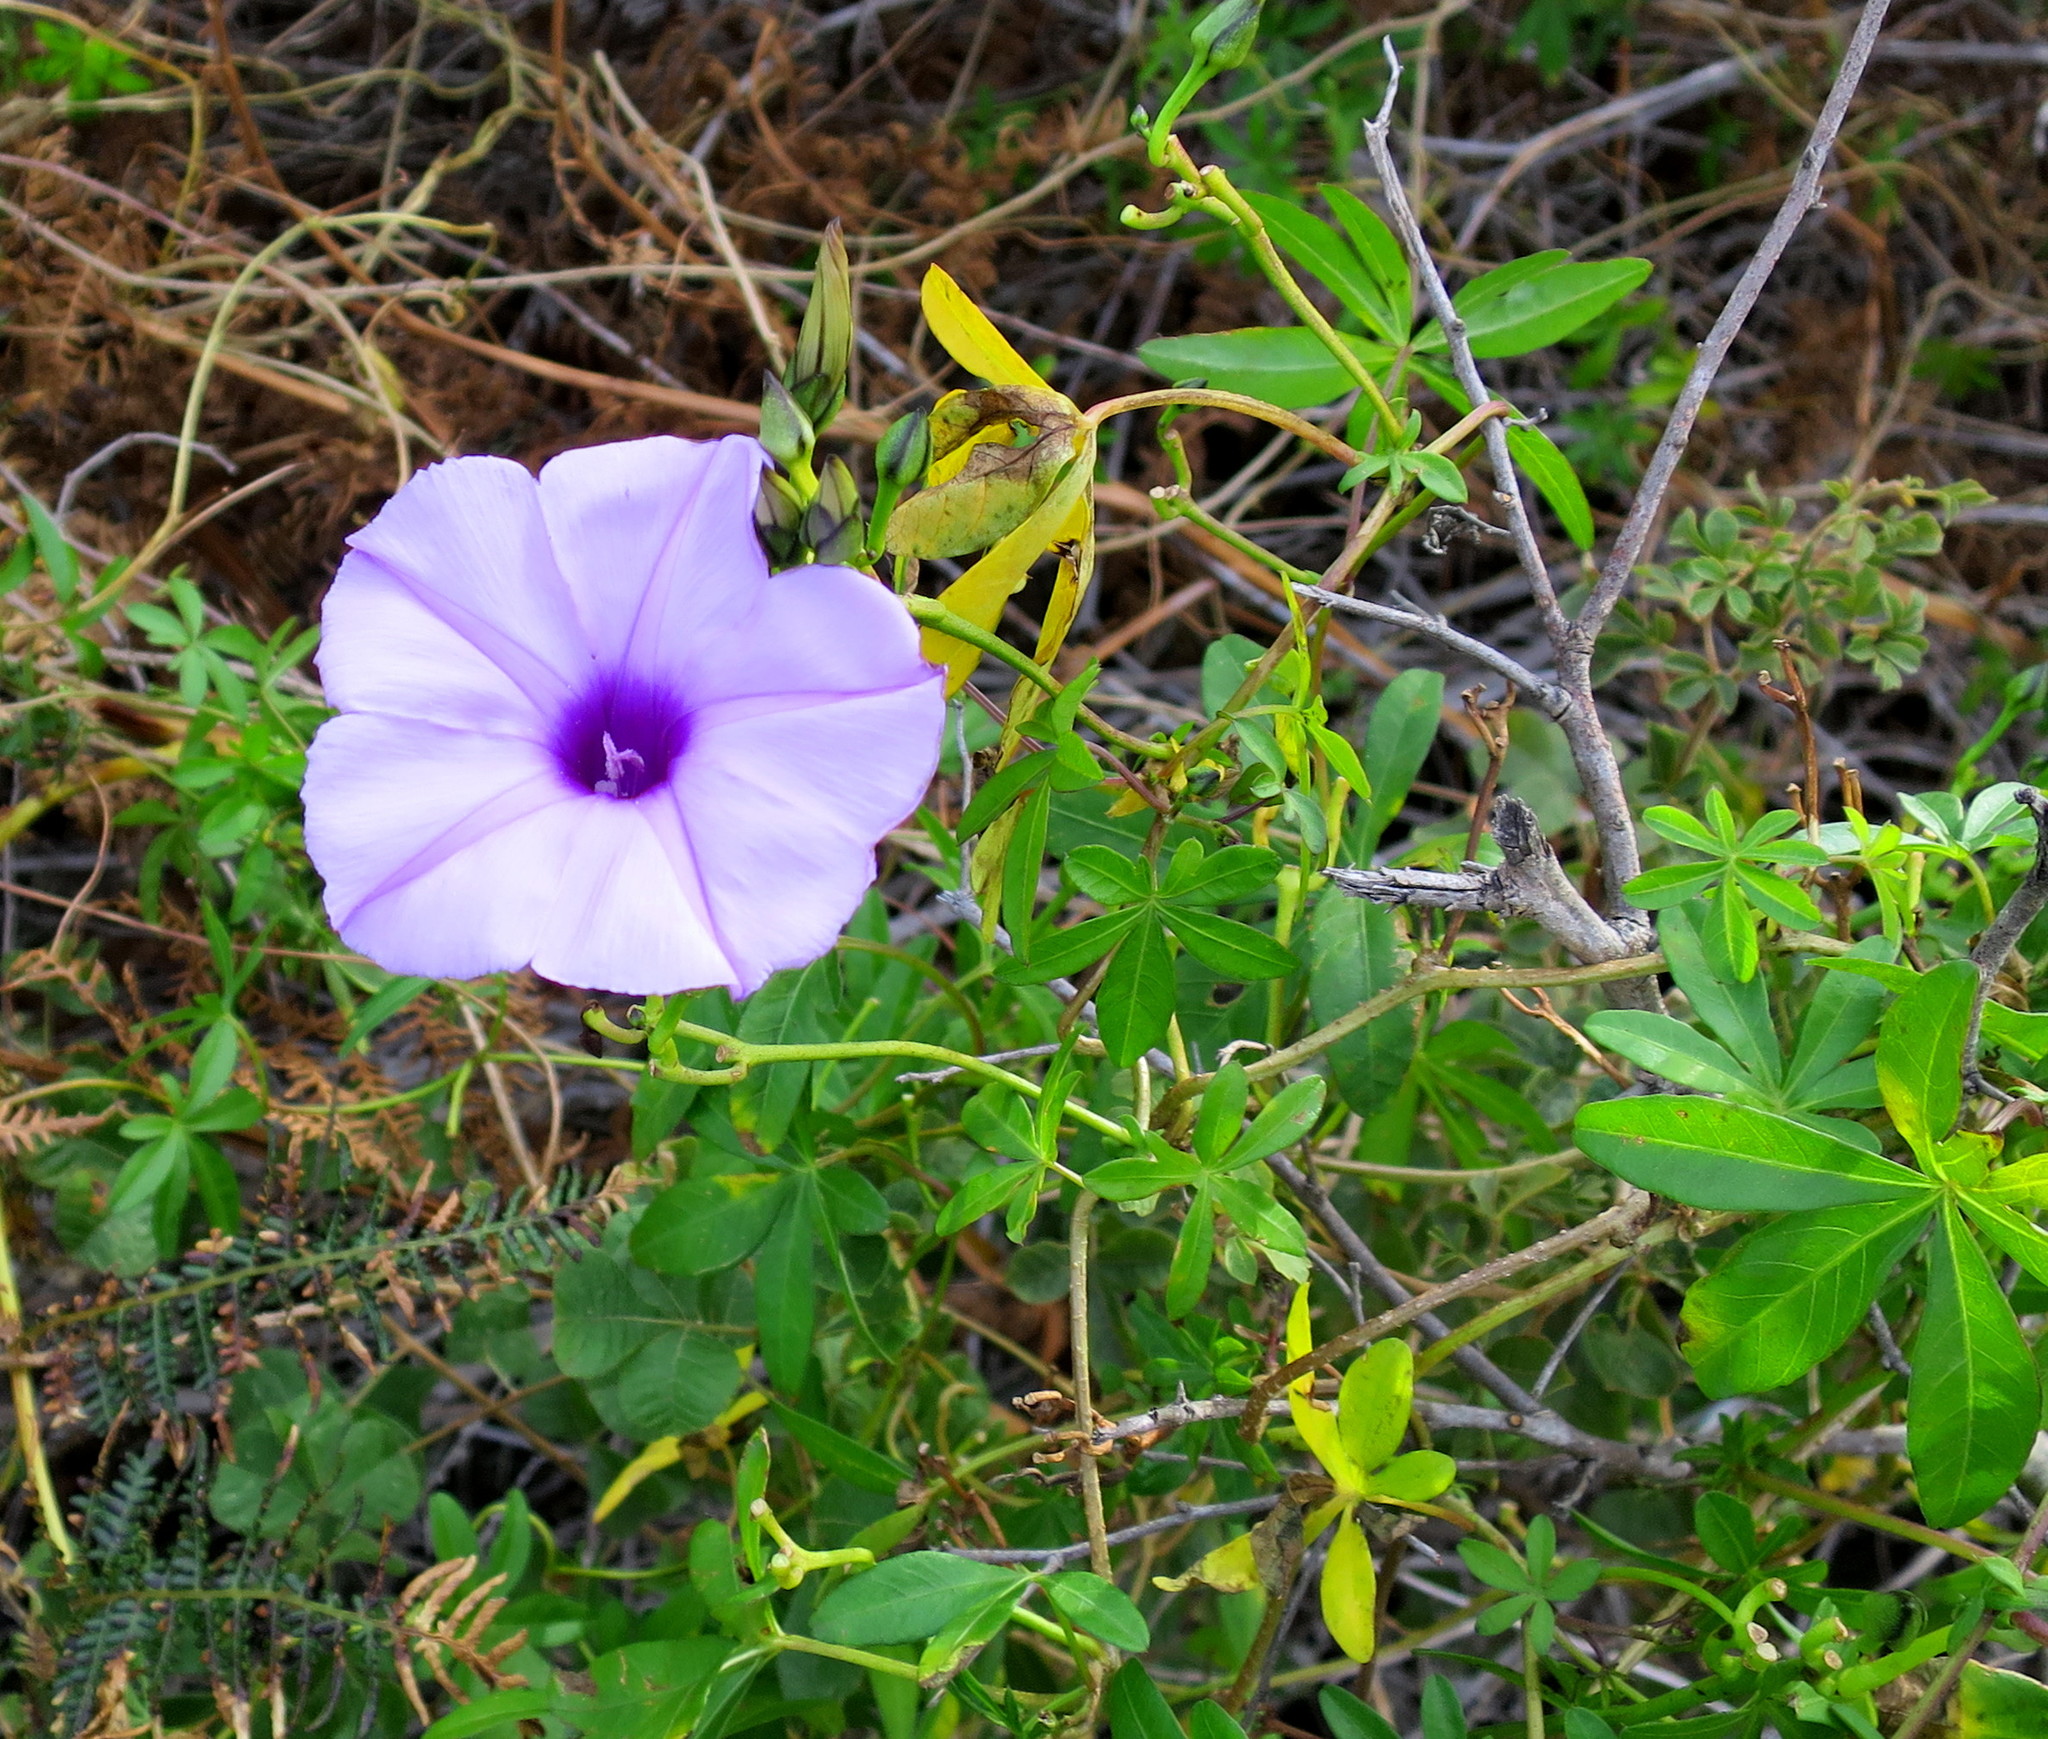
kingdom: Plantae
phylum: Tracheophyta
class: Magnoliopsida
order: Solanales
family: Convolvulaceae
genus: Ipomoea
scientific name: Ipomoea cairica
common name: Mile a minute vine
